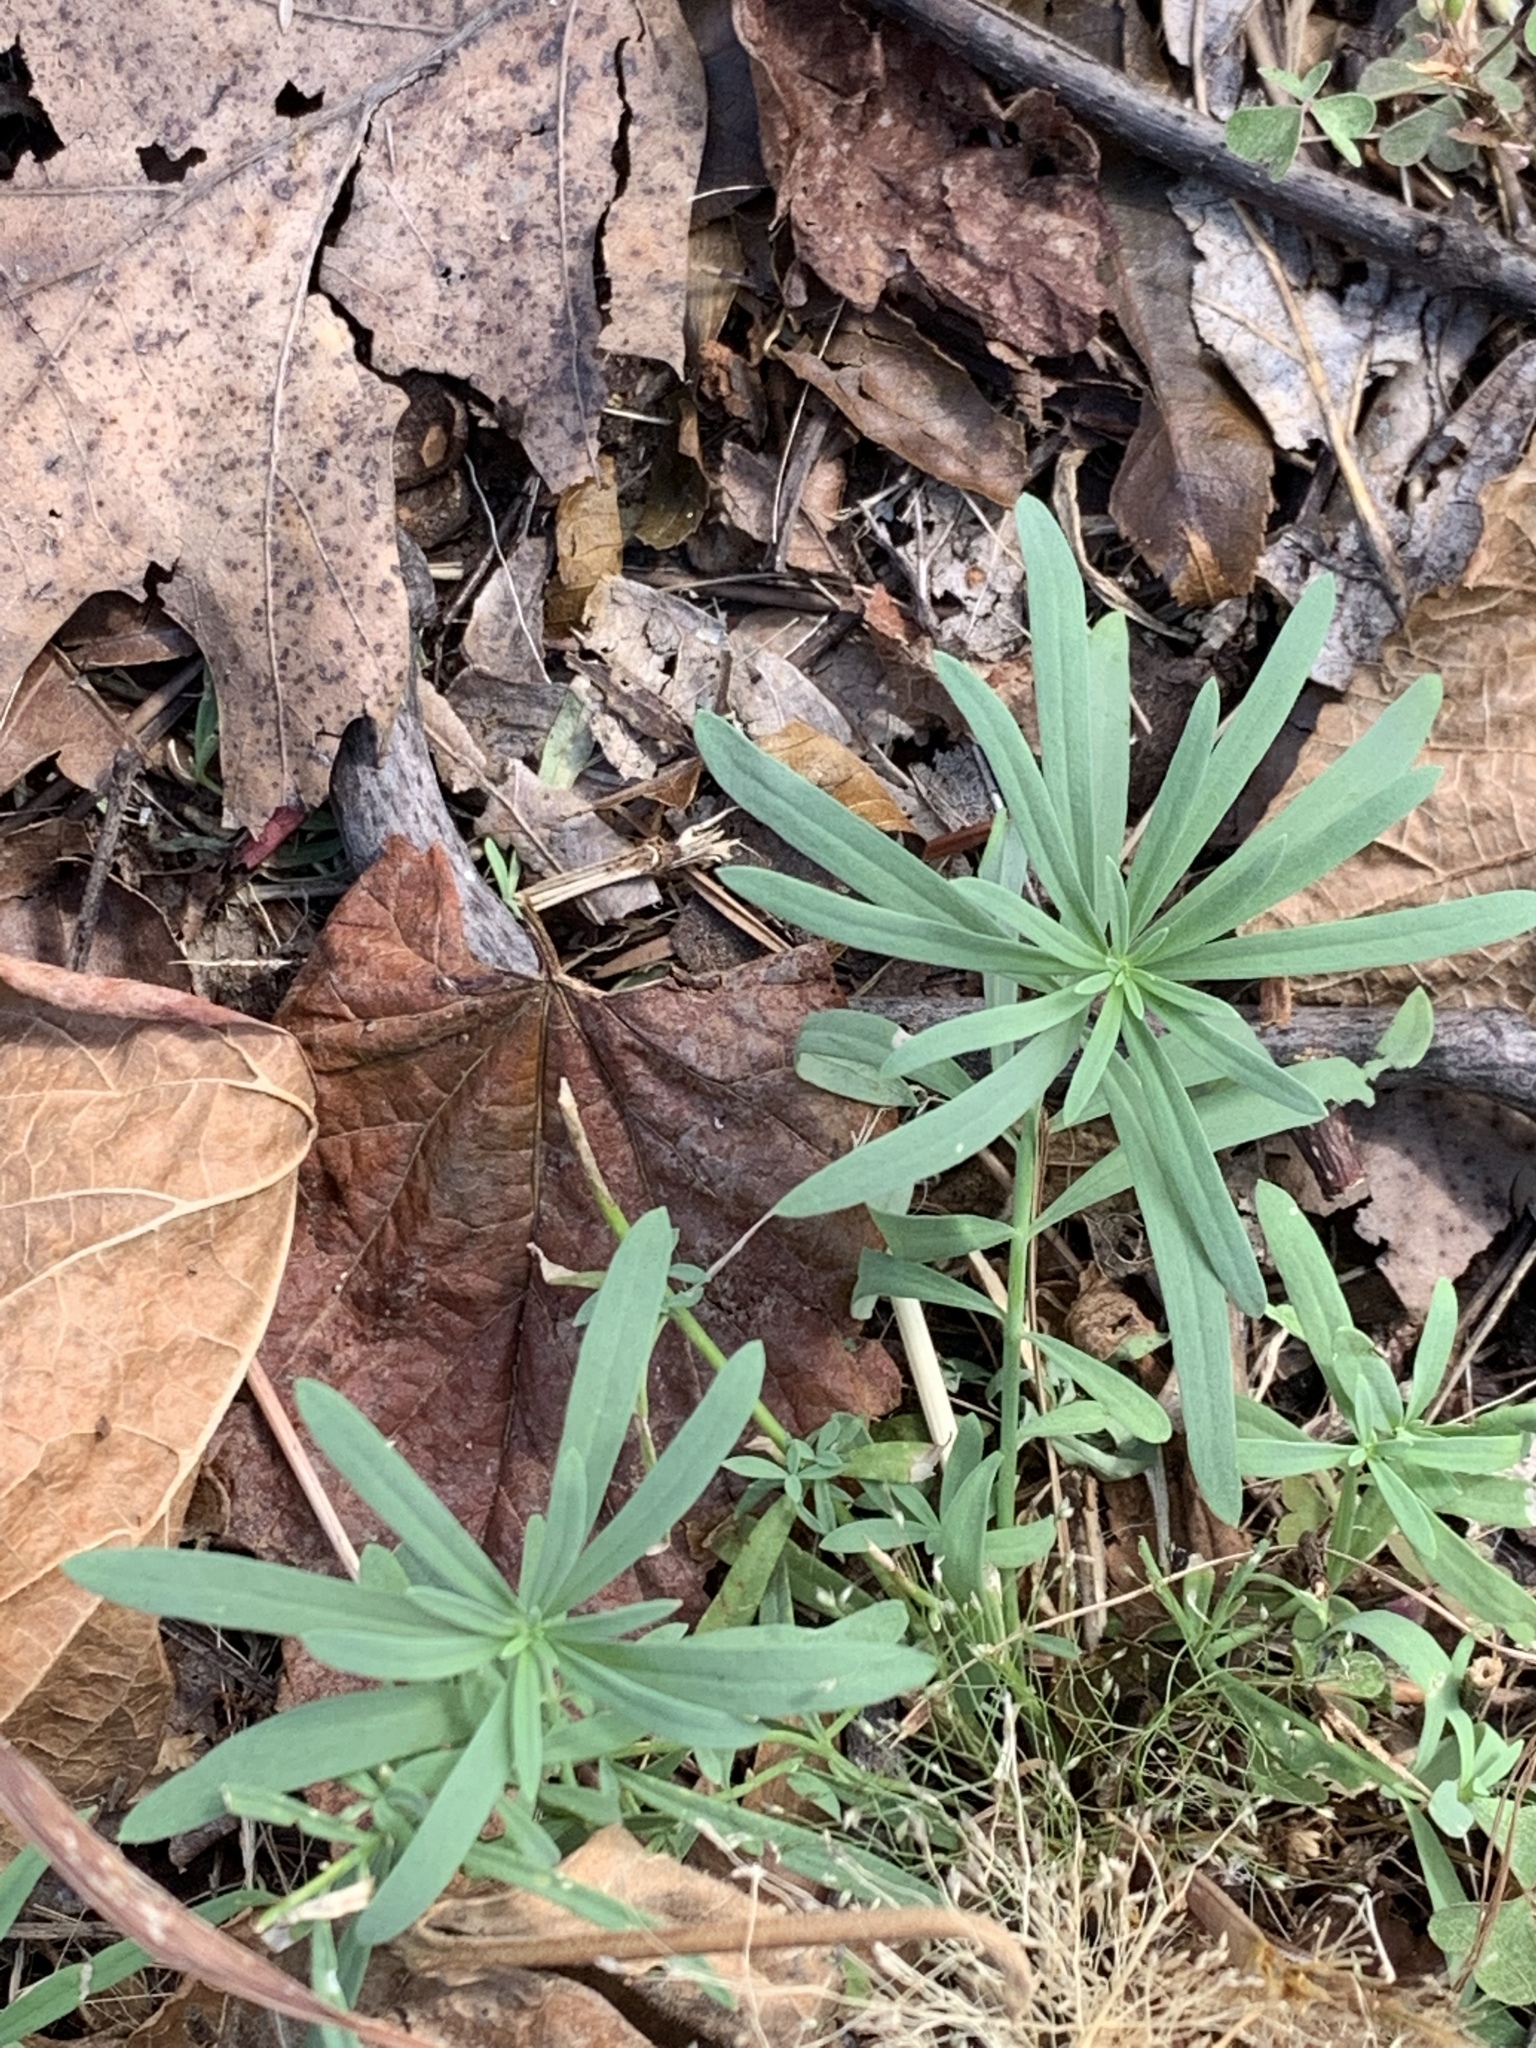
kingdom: Plantae
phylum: Tracheophyta
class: Magnoliopsida
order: Lamiales
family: Plantaginaceae
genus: Linaria
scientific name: Linaria vulgaris
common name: Butter and eggs
